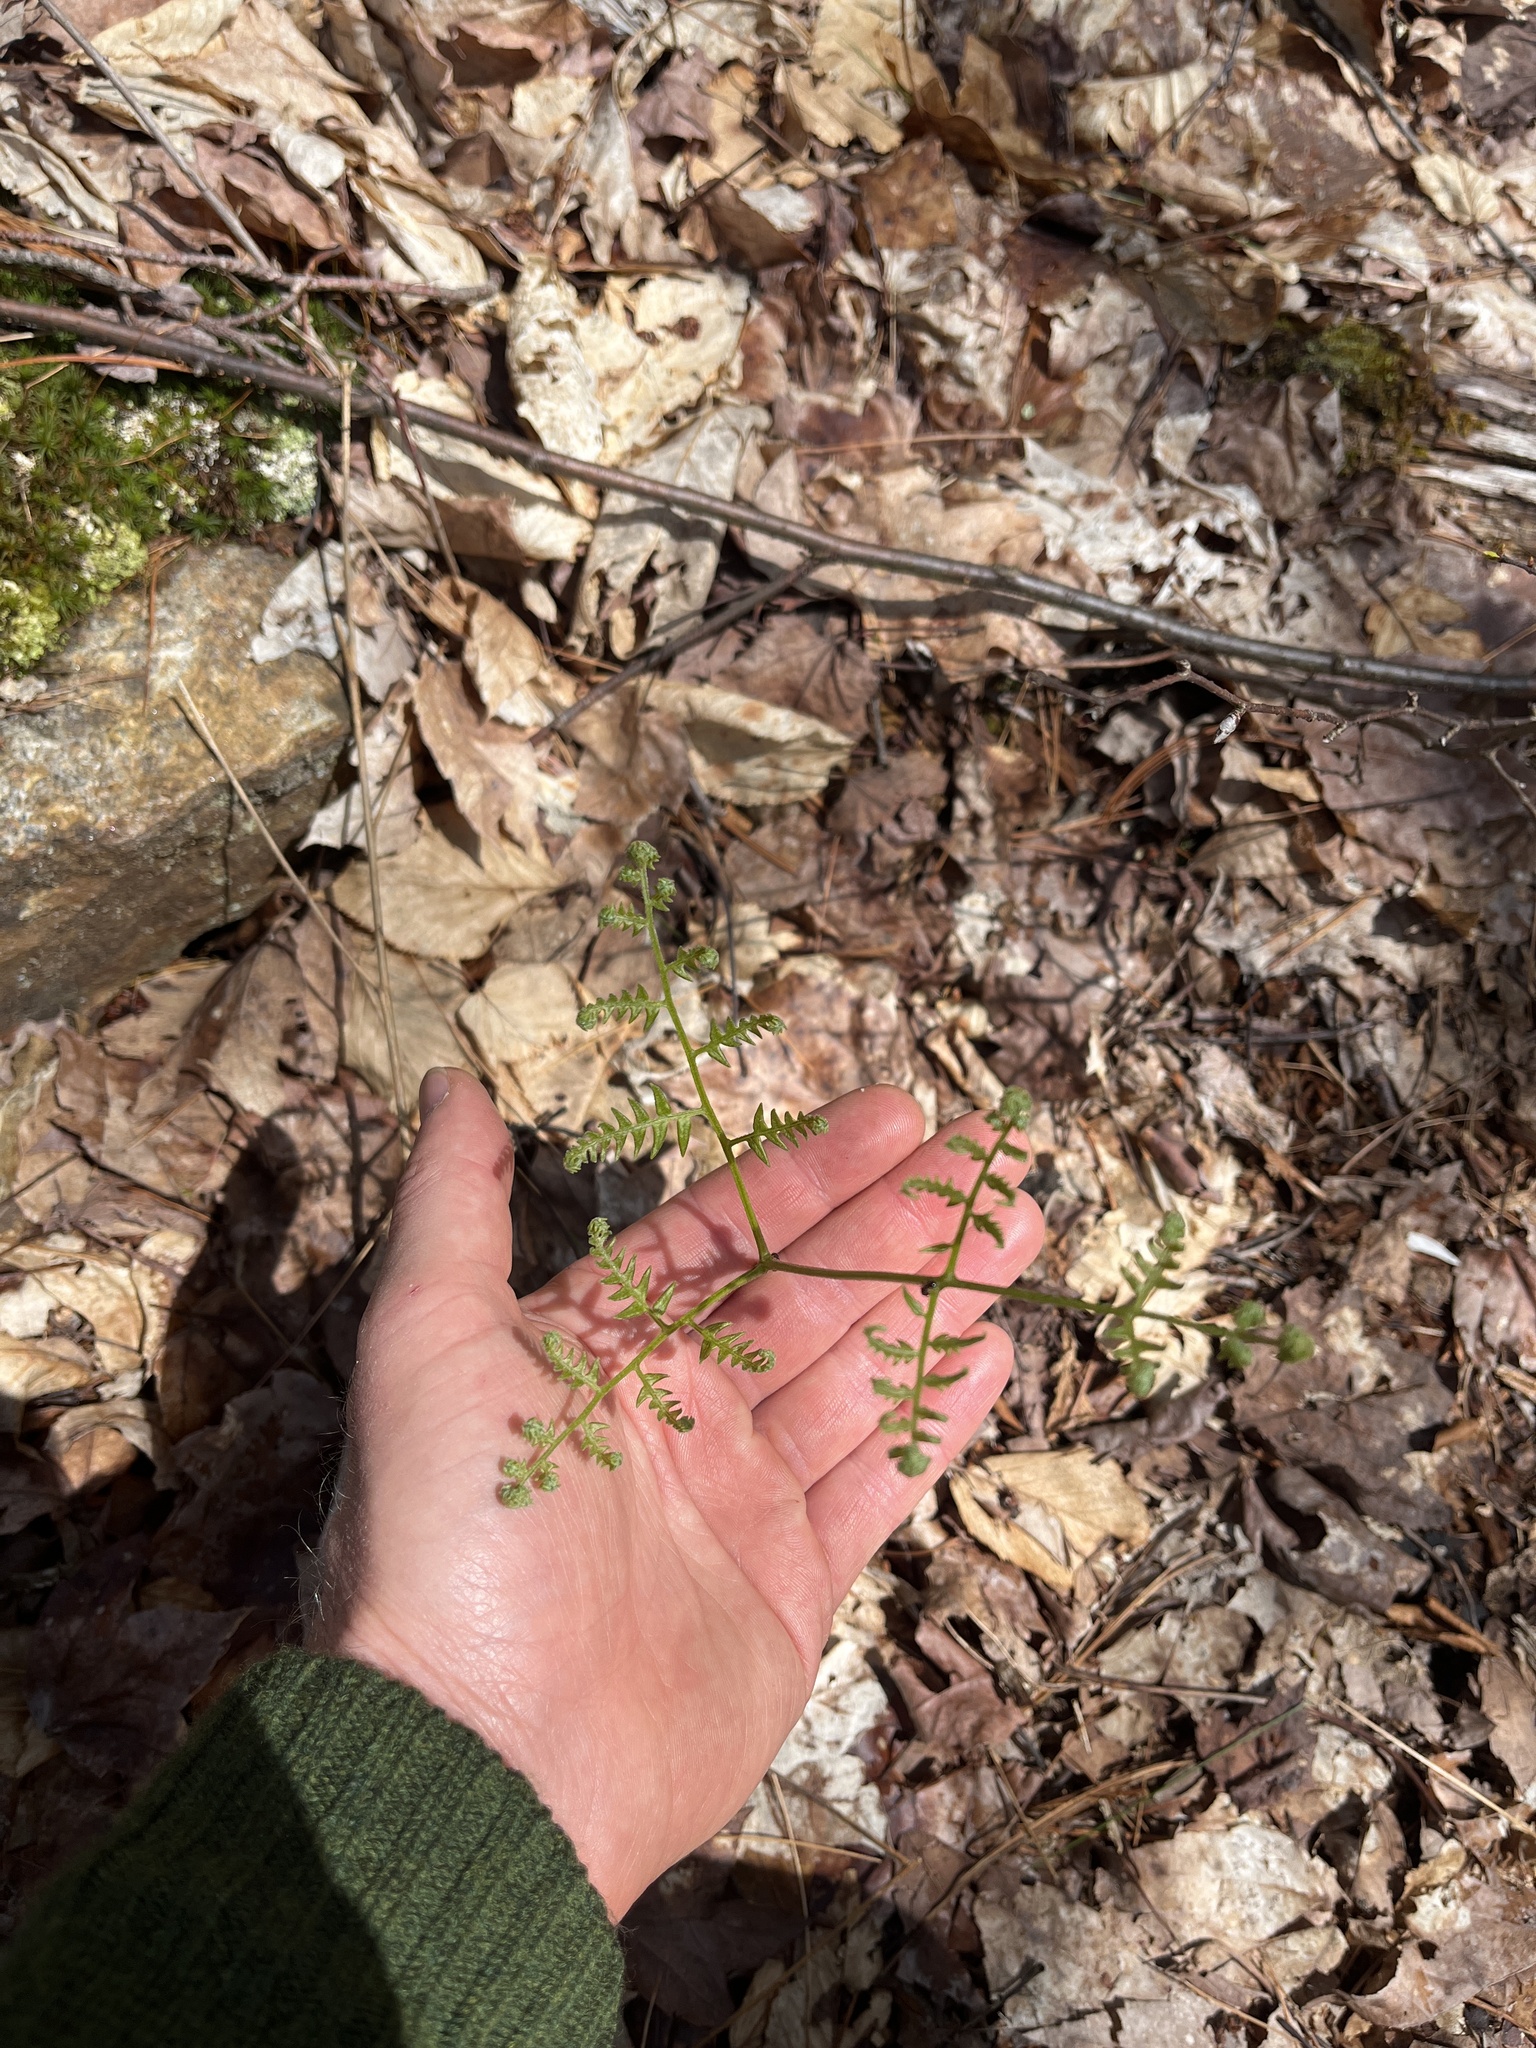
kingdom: Plantae
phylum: Tracheophyta
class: Polypodiopsida
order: Polypodiales
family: Dennstaedtiaceae
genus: Pteridium
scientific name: Pteridium aquilinum
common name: Bracken
